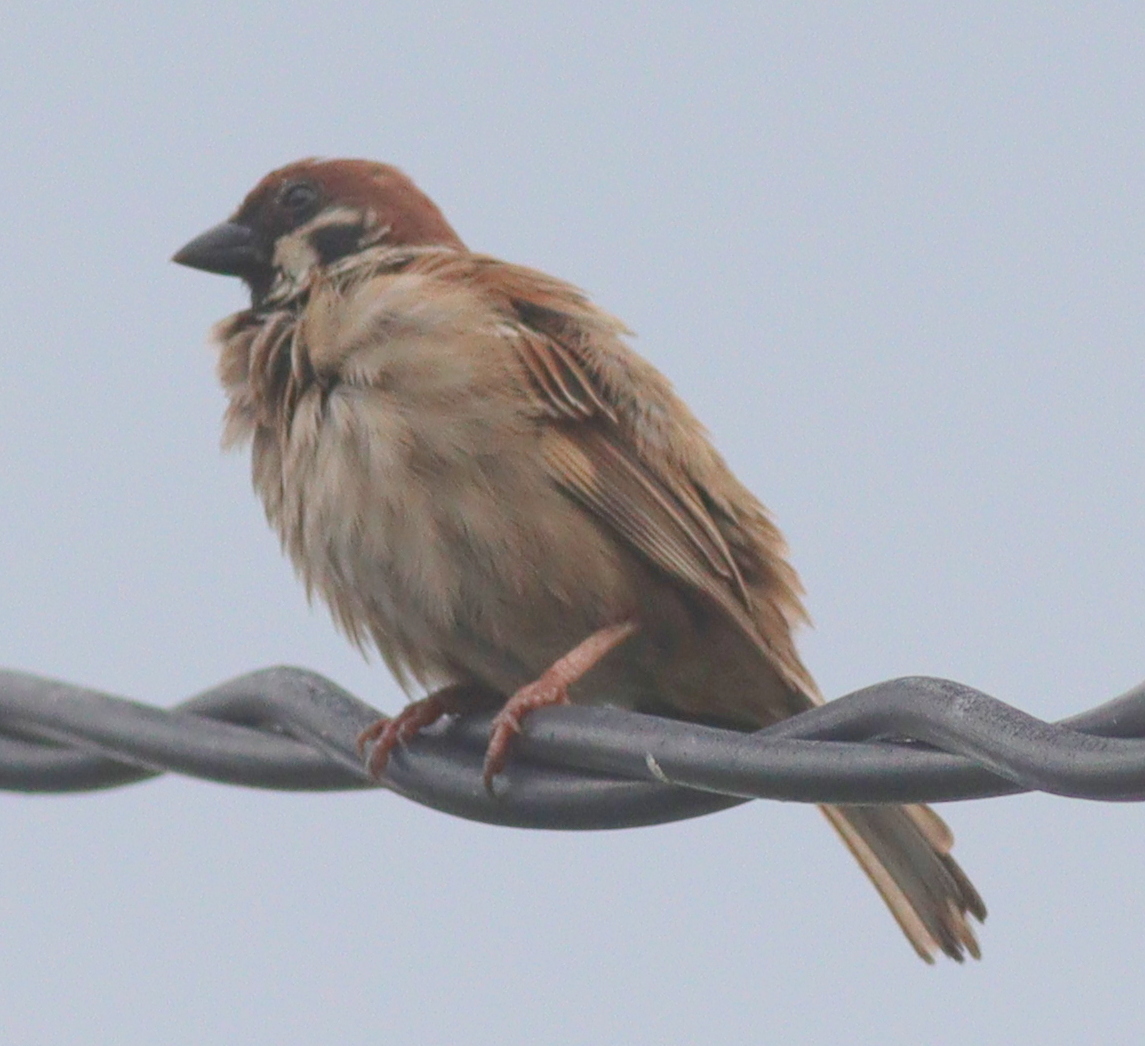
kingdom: Animalia
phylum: Chordata
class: Aves
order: Passeriformes
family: Passeridae
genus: Passer
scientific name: Passer montanus
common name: Eurasian tree sparrow
